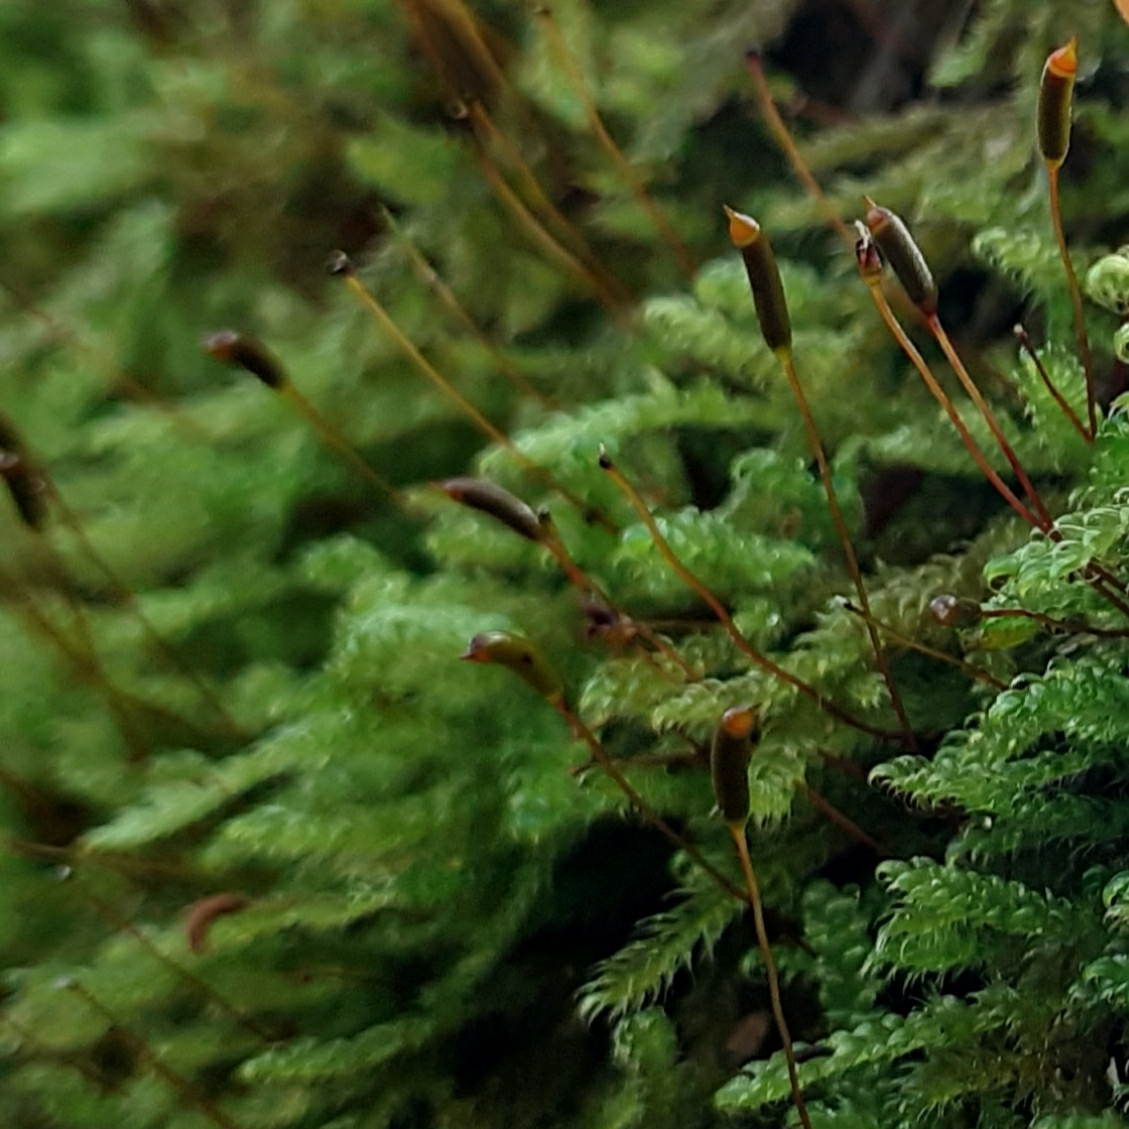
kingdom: Plantae
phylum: Bryophyta
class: Bryopsida
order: Hypnales
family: Hypnaceae
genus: Hypnum
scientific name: Hypnum cupressiforme
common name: Cypress-leaved plait-moss
